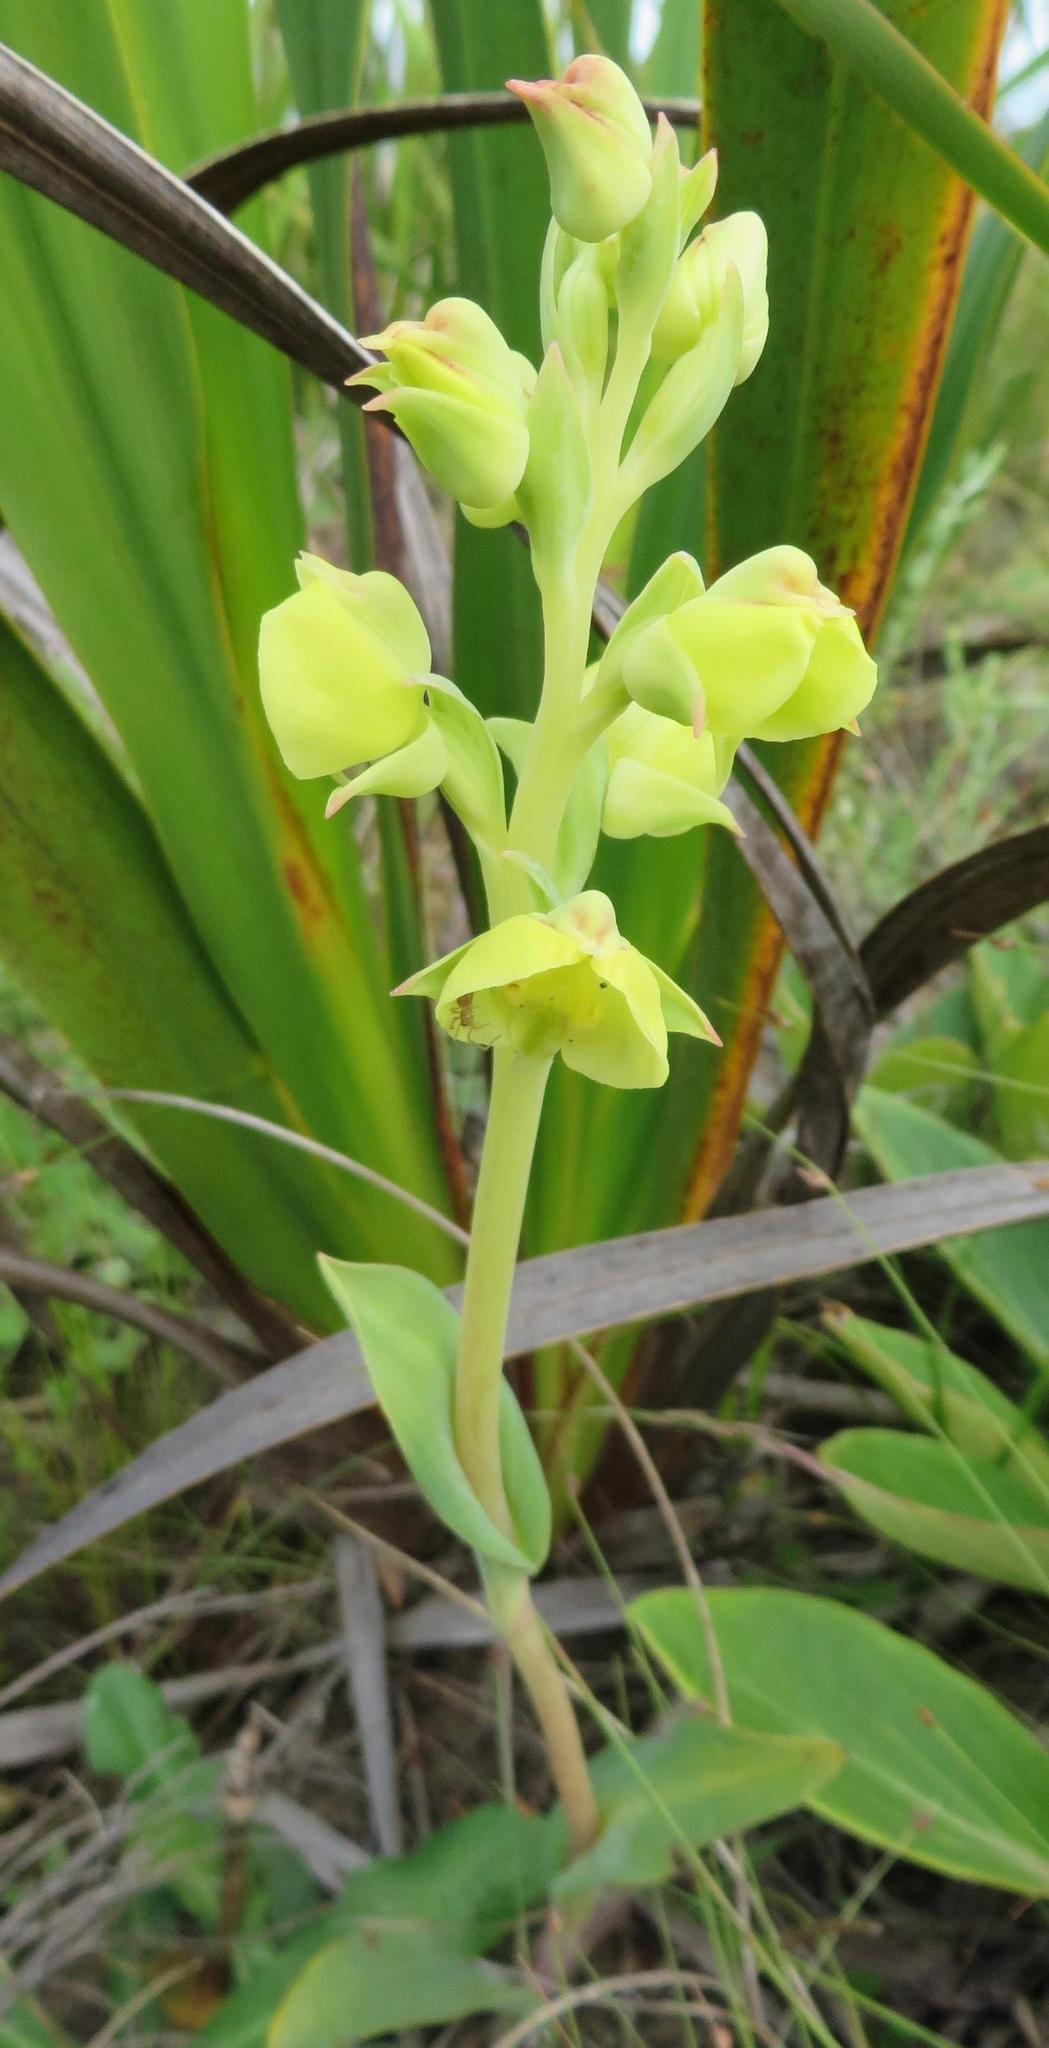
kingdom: Plantae
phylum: Tracheophyta
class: Liliopsida
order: Asparagales
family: Orchidaceae
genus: Pterygodium
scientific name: Pterygodium catholicum
